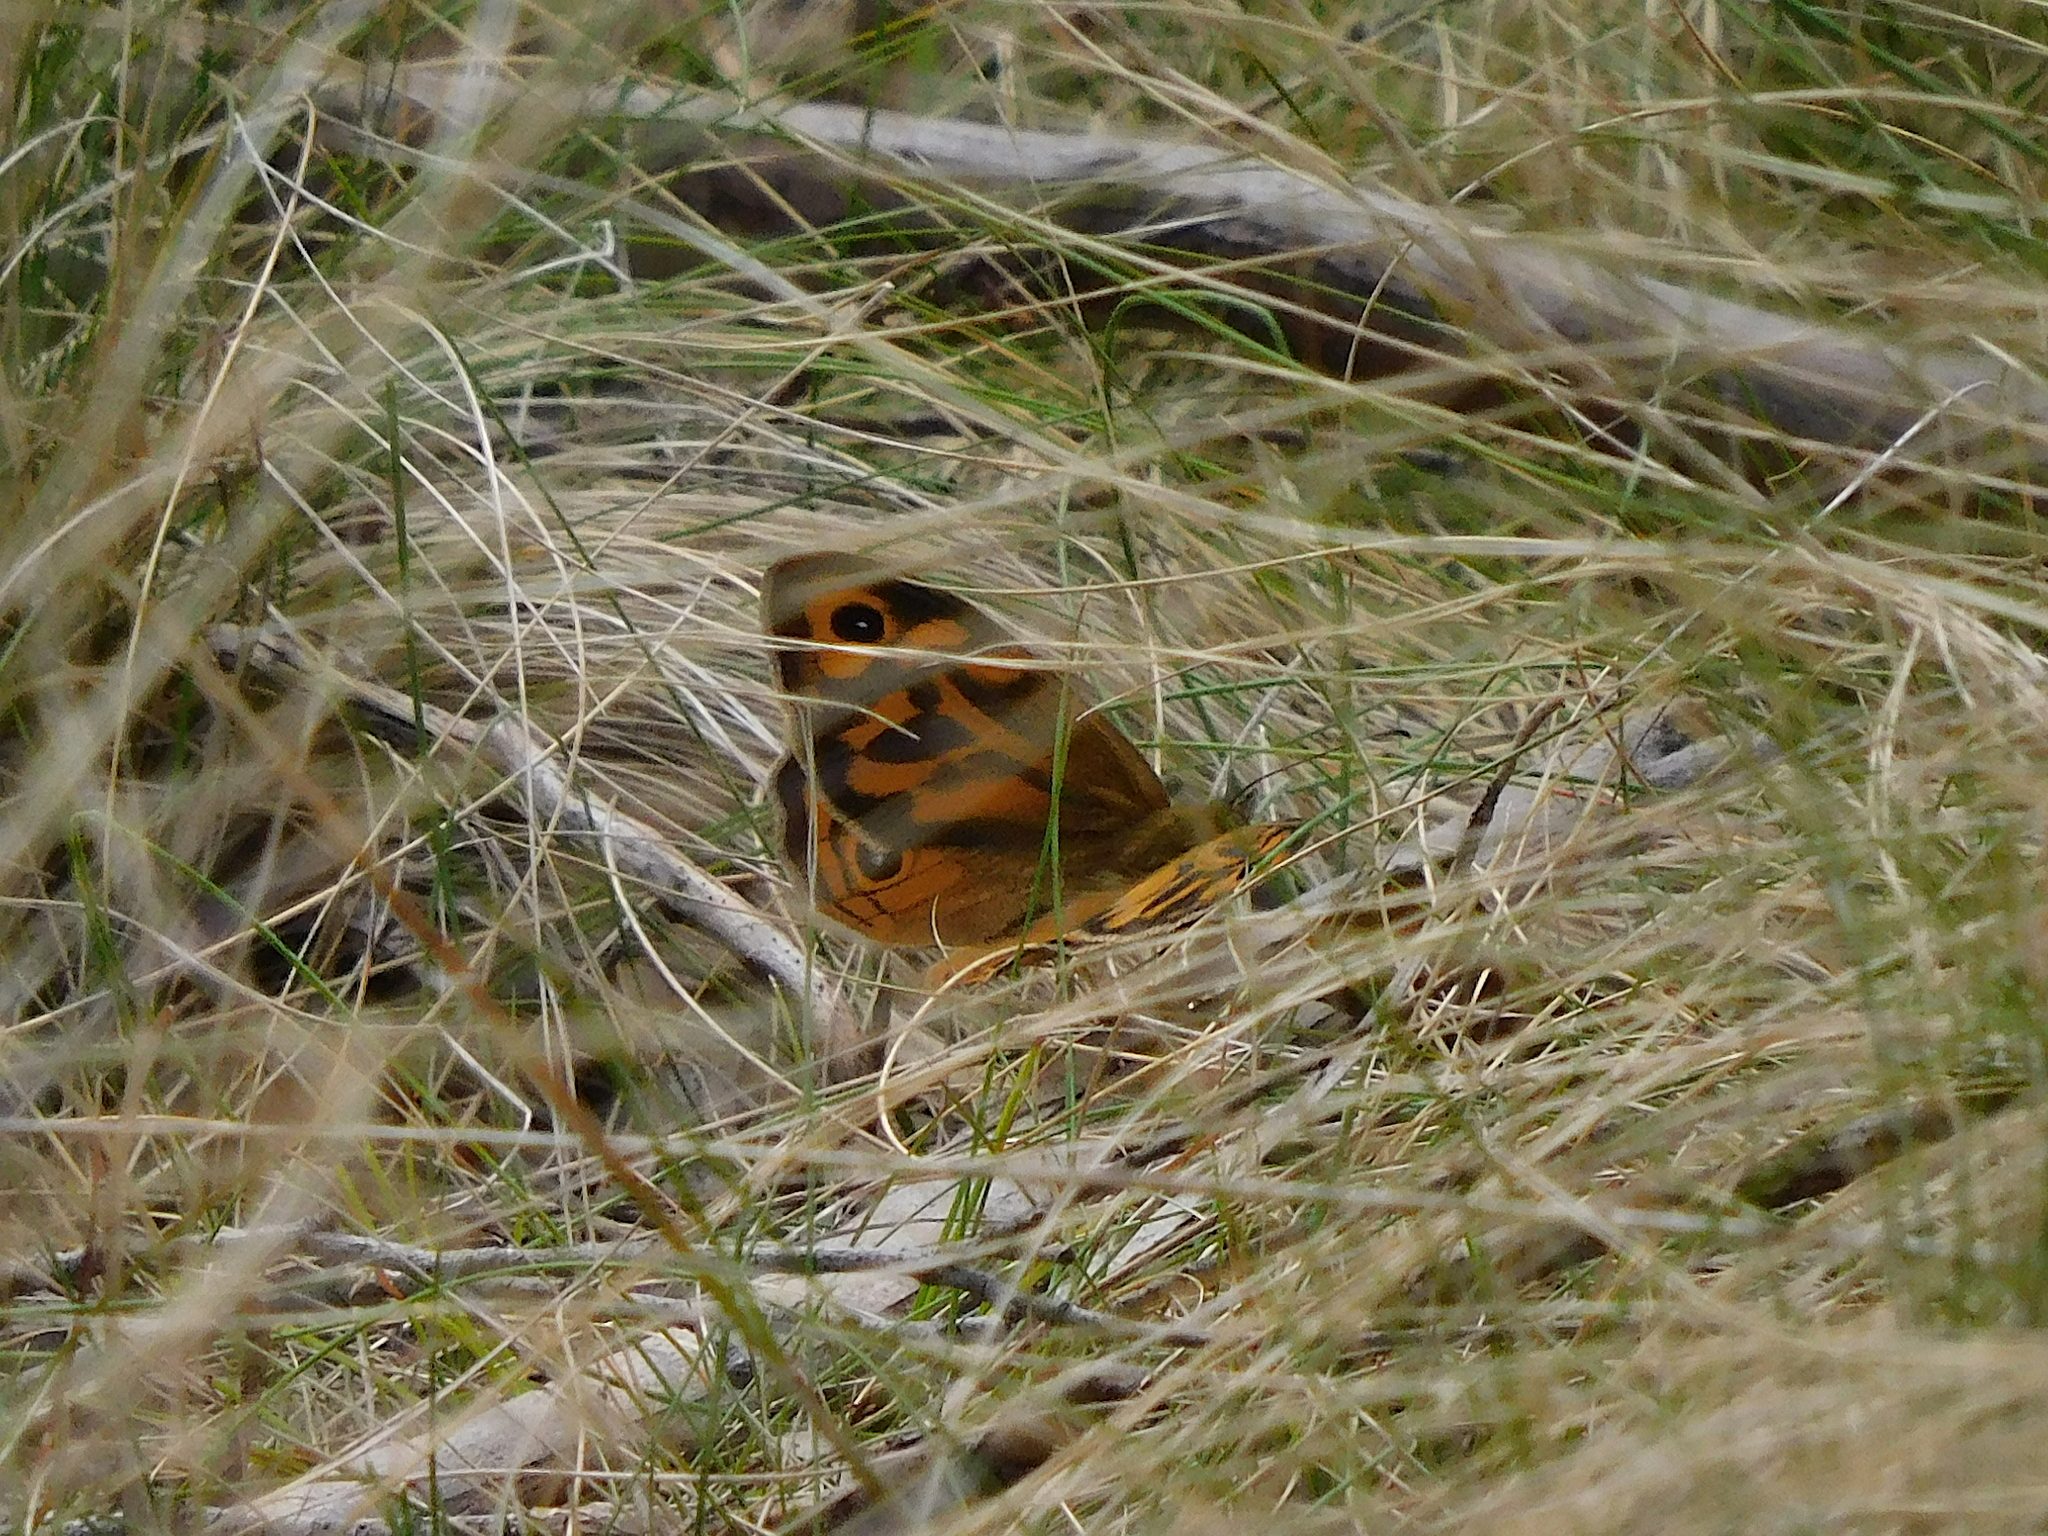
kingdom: Animalia
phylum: Arthropoda
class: Insecta
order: Lepidoptera
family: Nymphalidae
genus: Heteronympha
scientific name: Heteronympha merope
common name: Common brown
